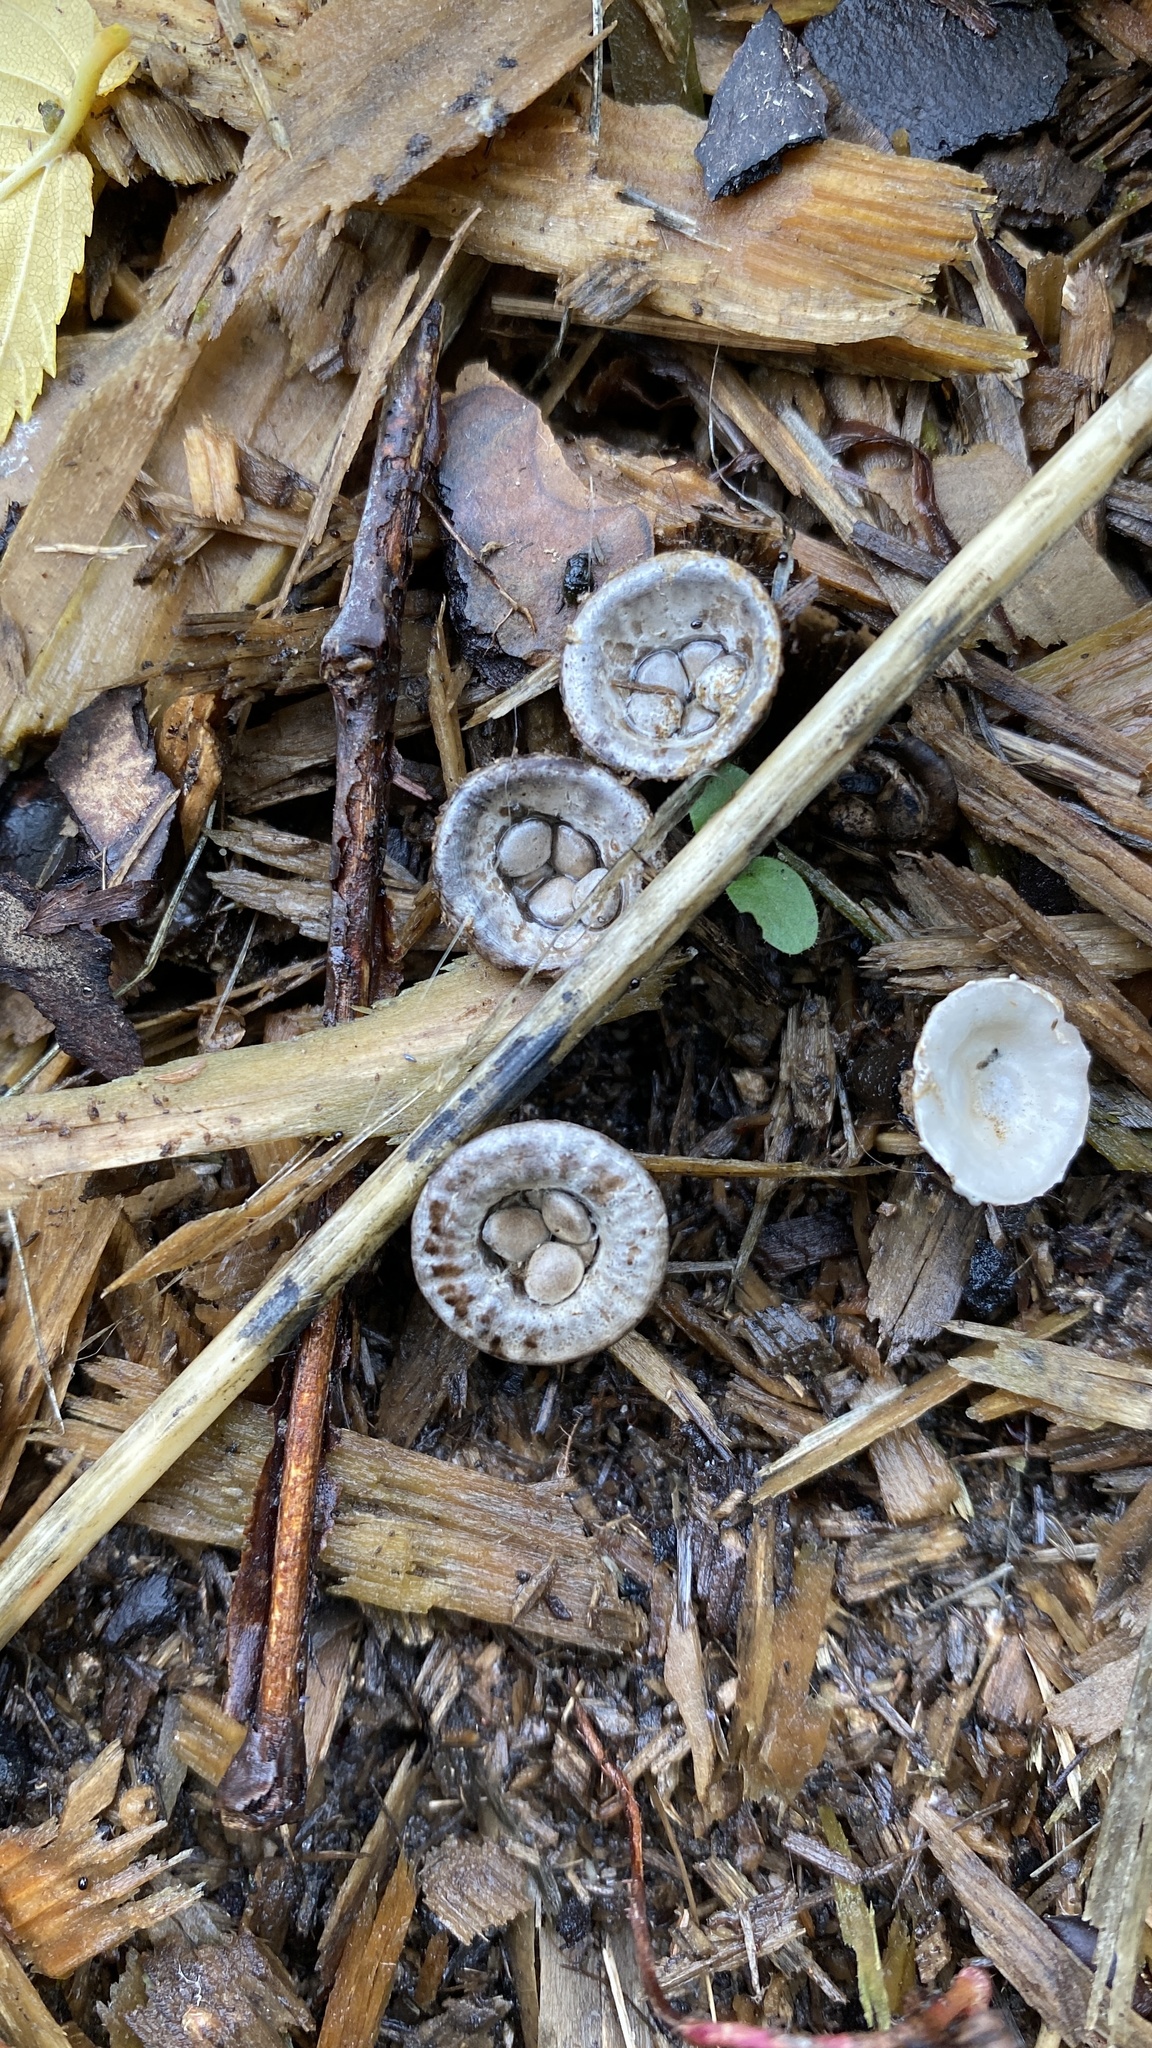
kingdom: Fungi
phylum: Basidiomycota
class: Agaricomycetes
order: Agaricales
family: Agaricaceae
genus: Cyathus
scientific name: Cyathus olla
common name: Field bird's nest
